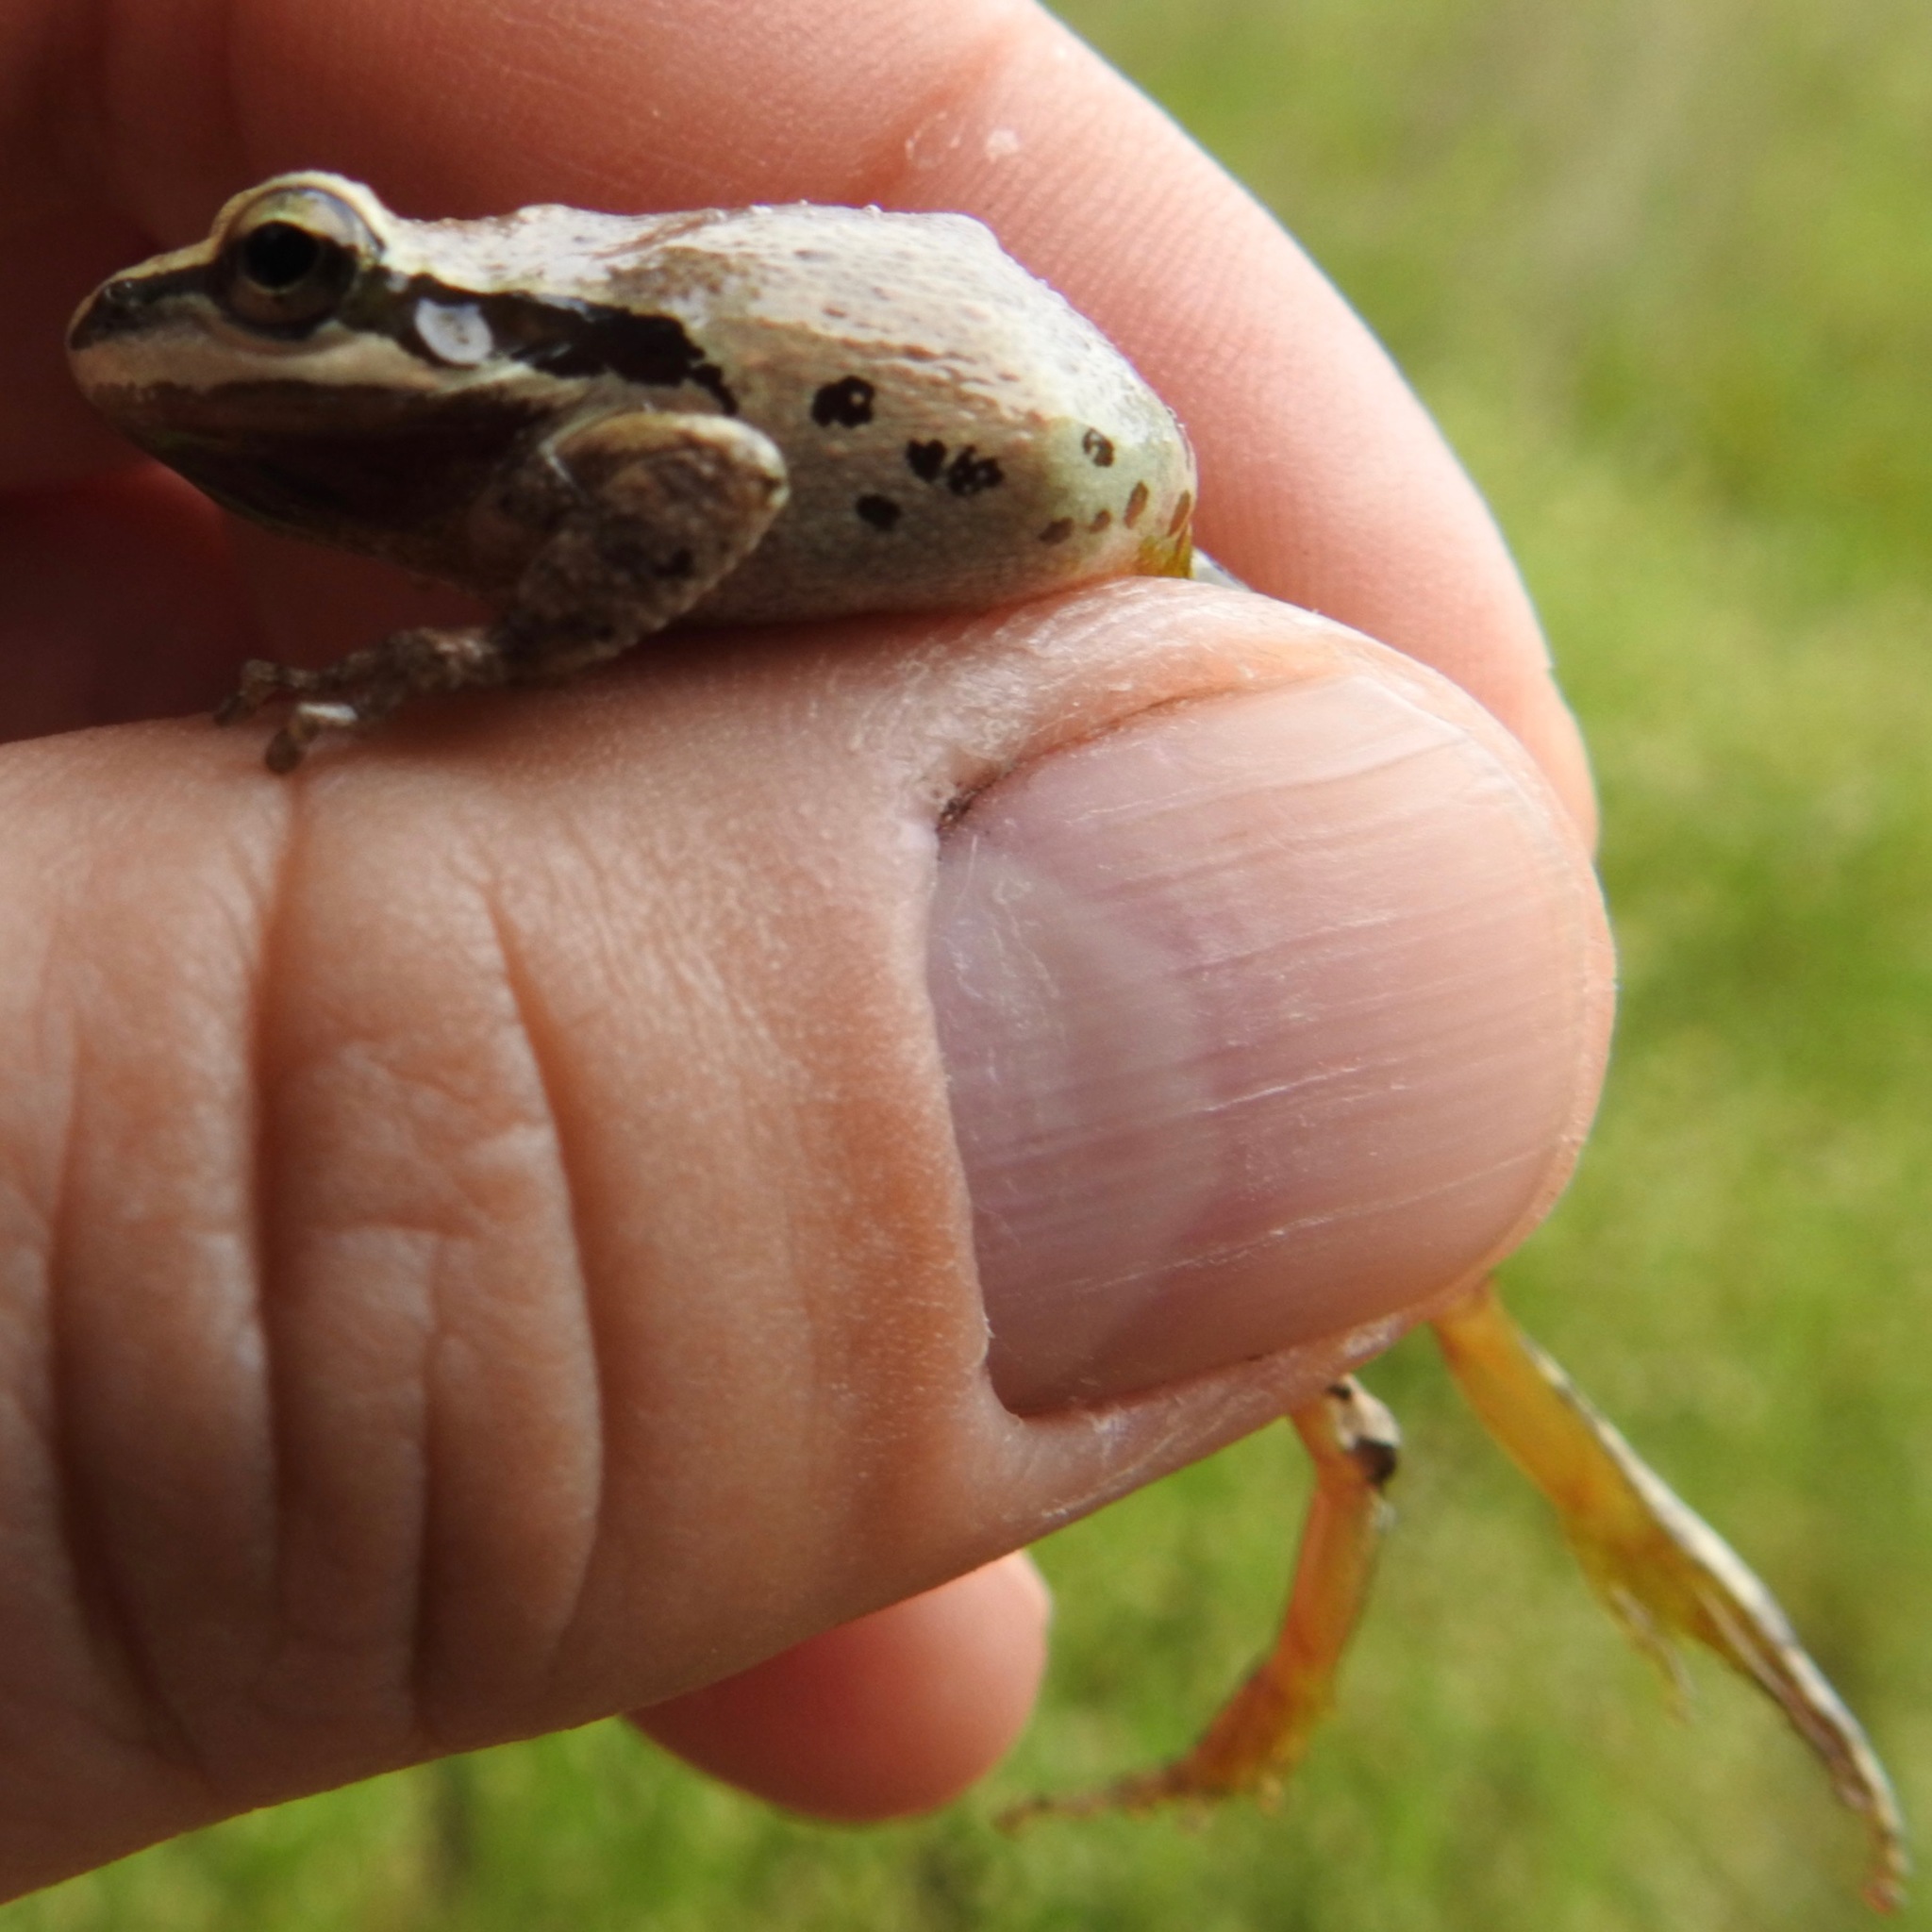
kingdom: Animalia
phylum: Chordata
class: Amphibia
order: Anura
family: Hylidae
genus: Pseudacris
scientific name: Pseudacris regilla
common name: Pacific chorus frog
